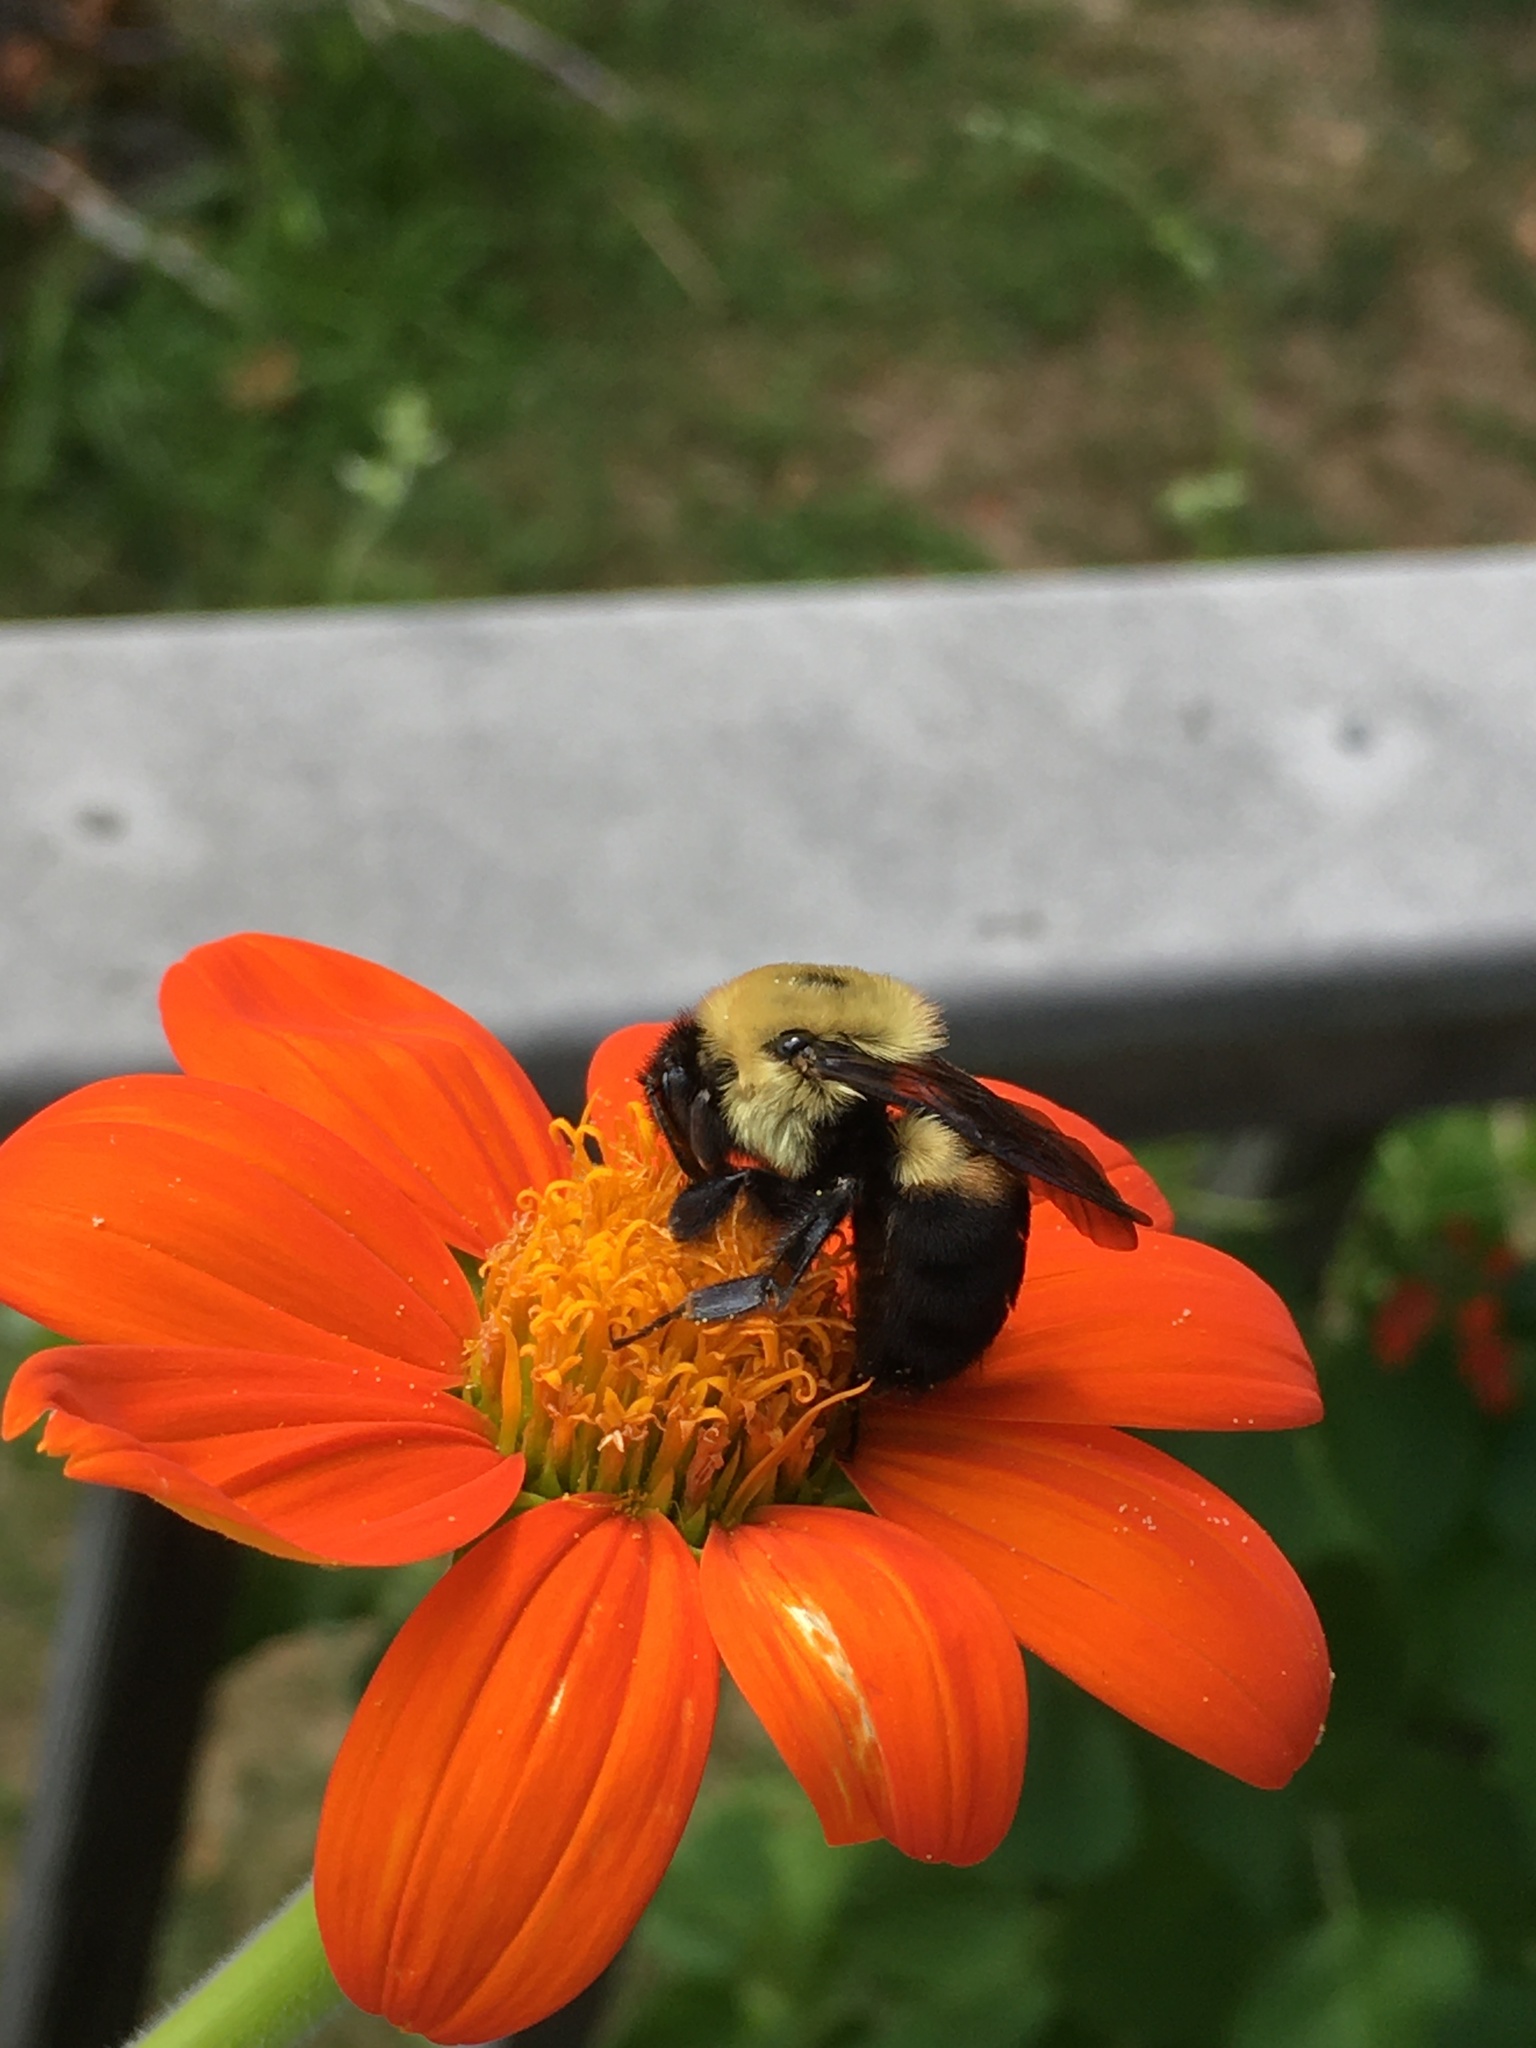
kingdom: Animalia
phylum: Arthropoda
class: Insecta
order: Hymenoptera
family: Apidae
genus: Bombus
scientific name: Bombus griseocollis
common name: Brown-belted bumble bee
